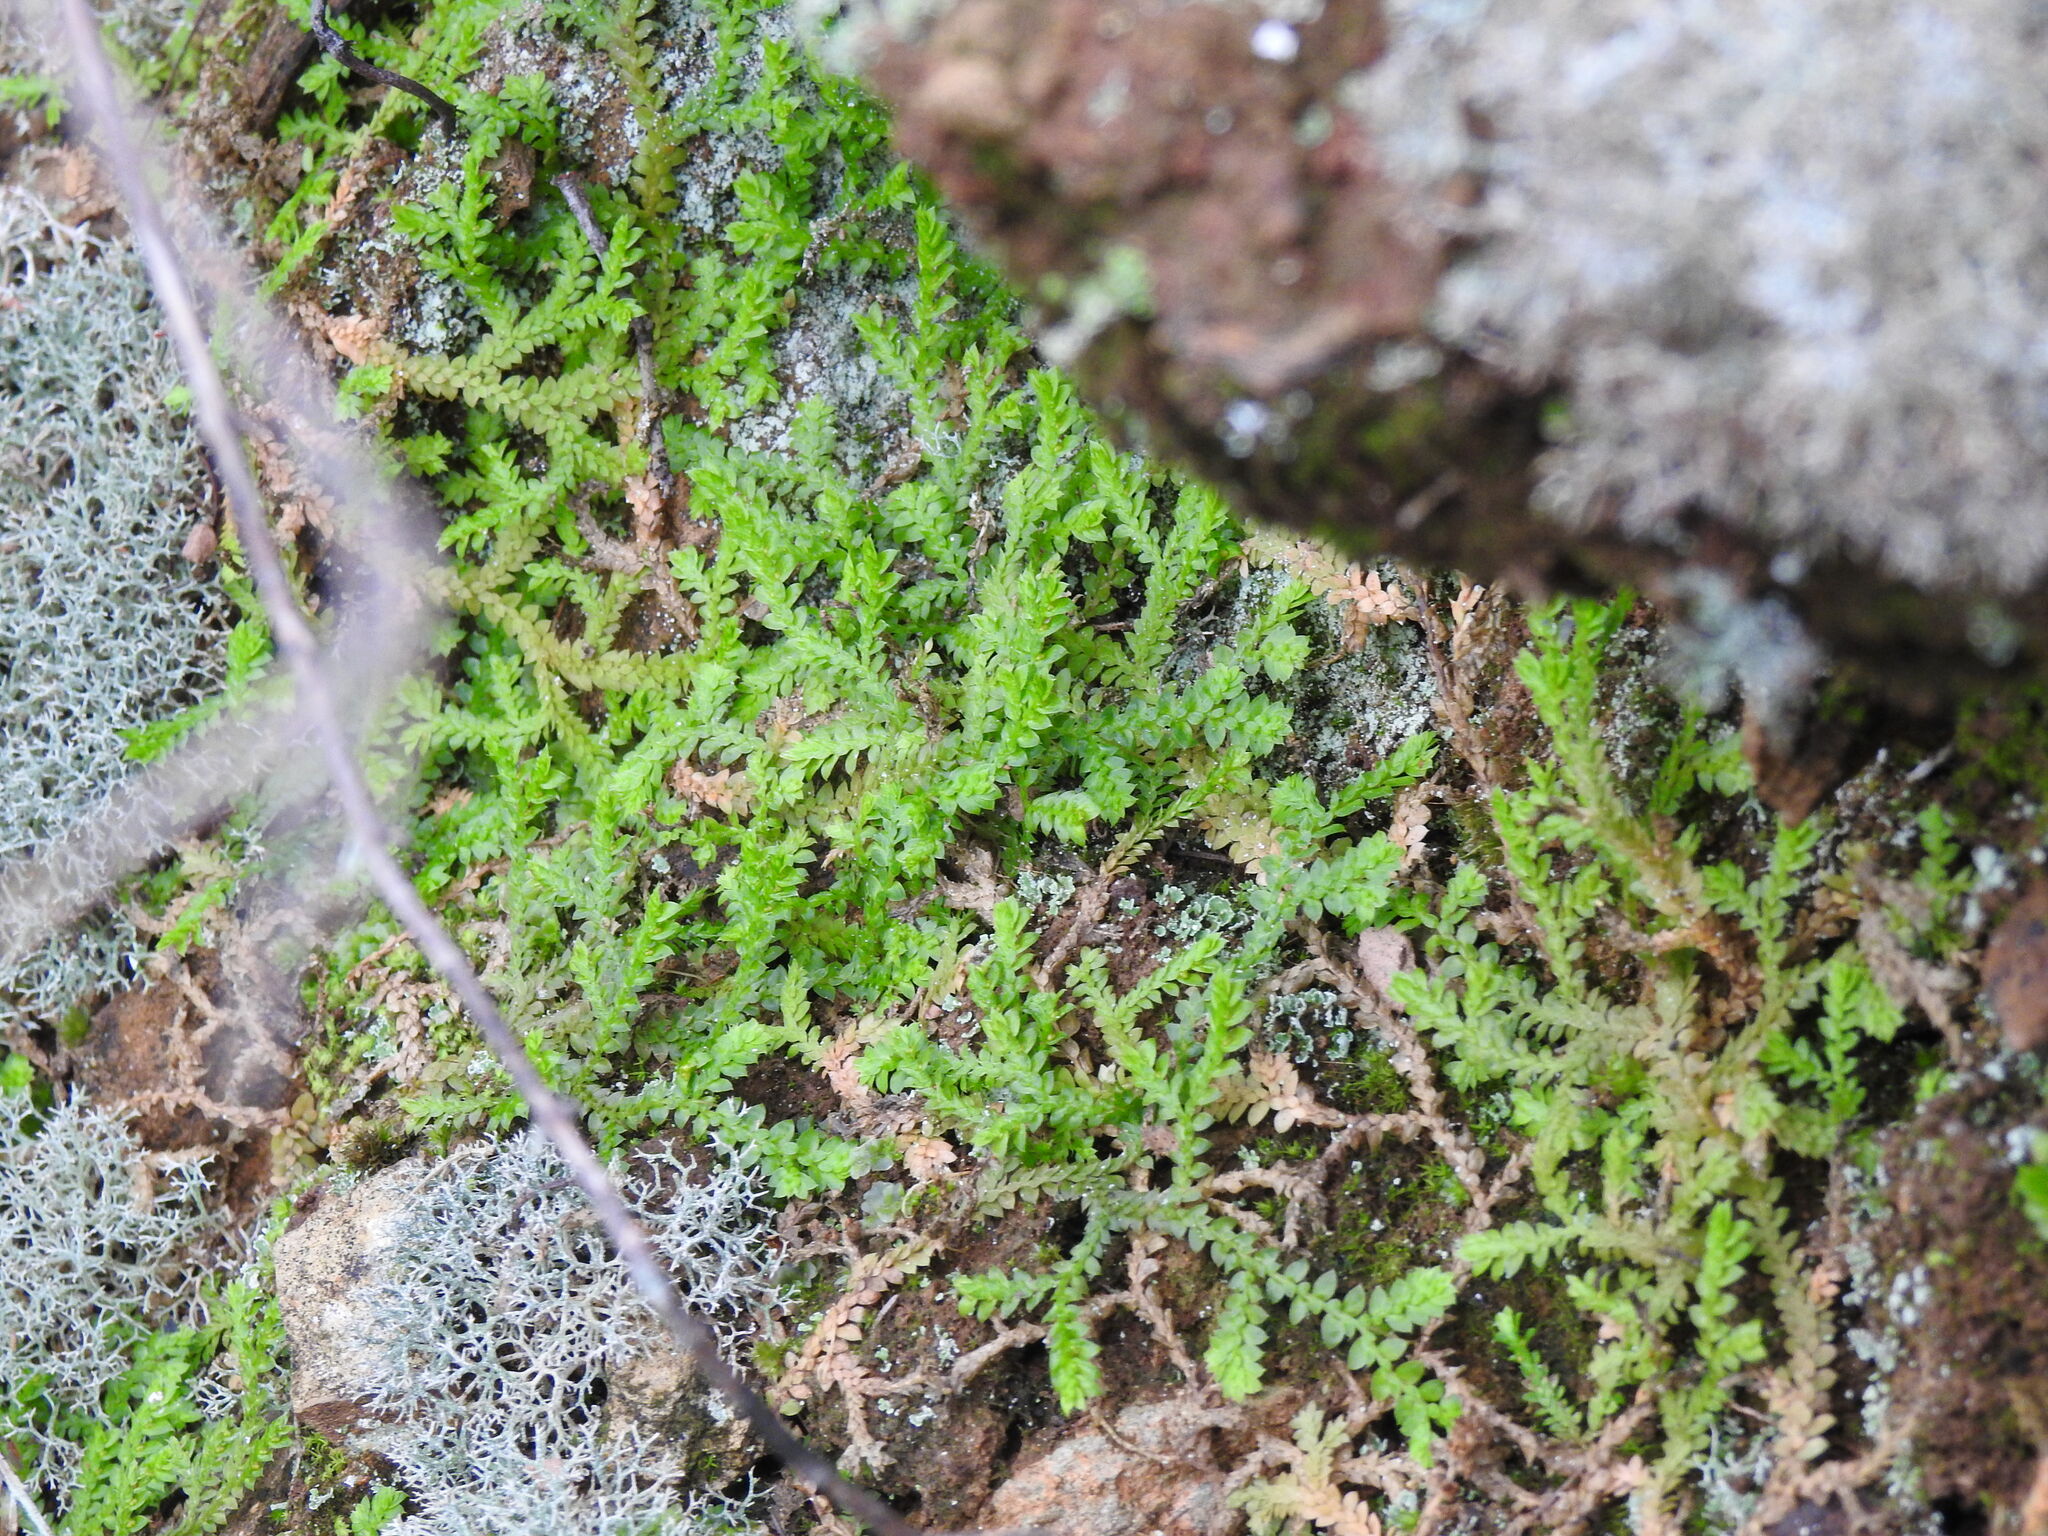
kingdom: Plantae
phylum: Tracheophyta
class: Lycopodiopsida
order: Selaginellales
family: Selaginellaceae
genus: Selaginella
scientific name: Selaginella denticulata
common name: Toothed-leaved clubmoss
